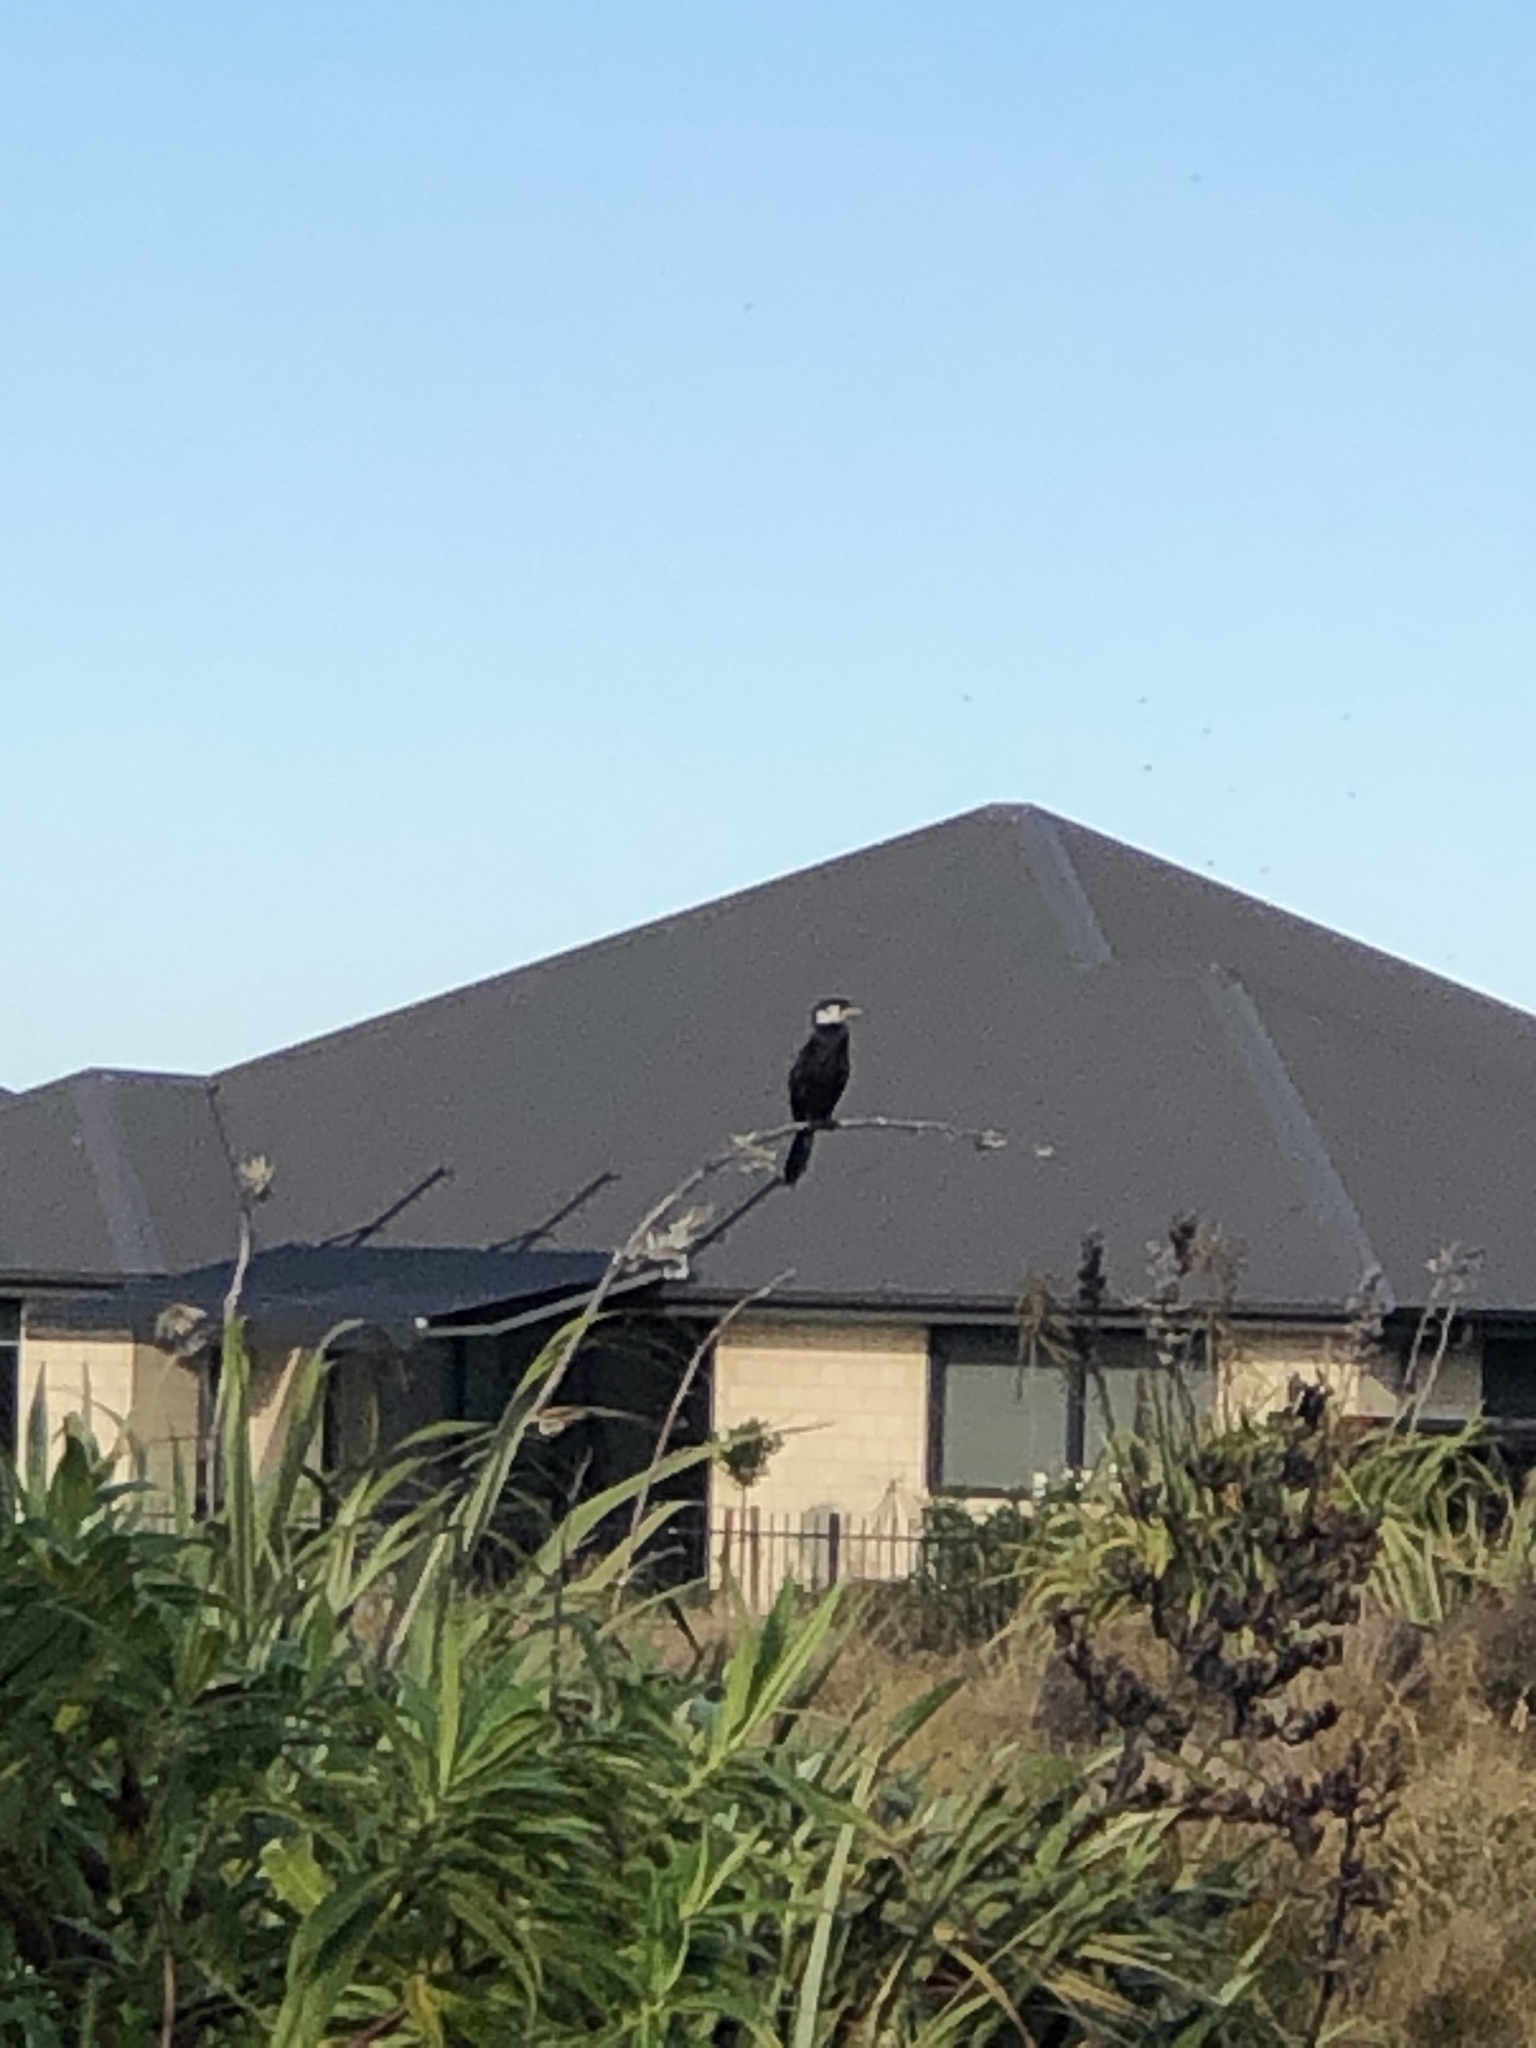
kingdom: Animalia
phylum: Chordata
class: Aves
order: Suliformes
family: Phalacrocoracidae
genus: Microcarbo
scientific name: Microcarbo melanoleucos
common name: Little pied cormorant
